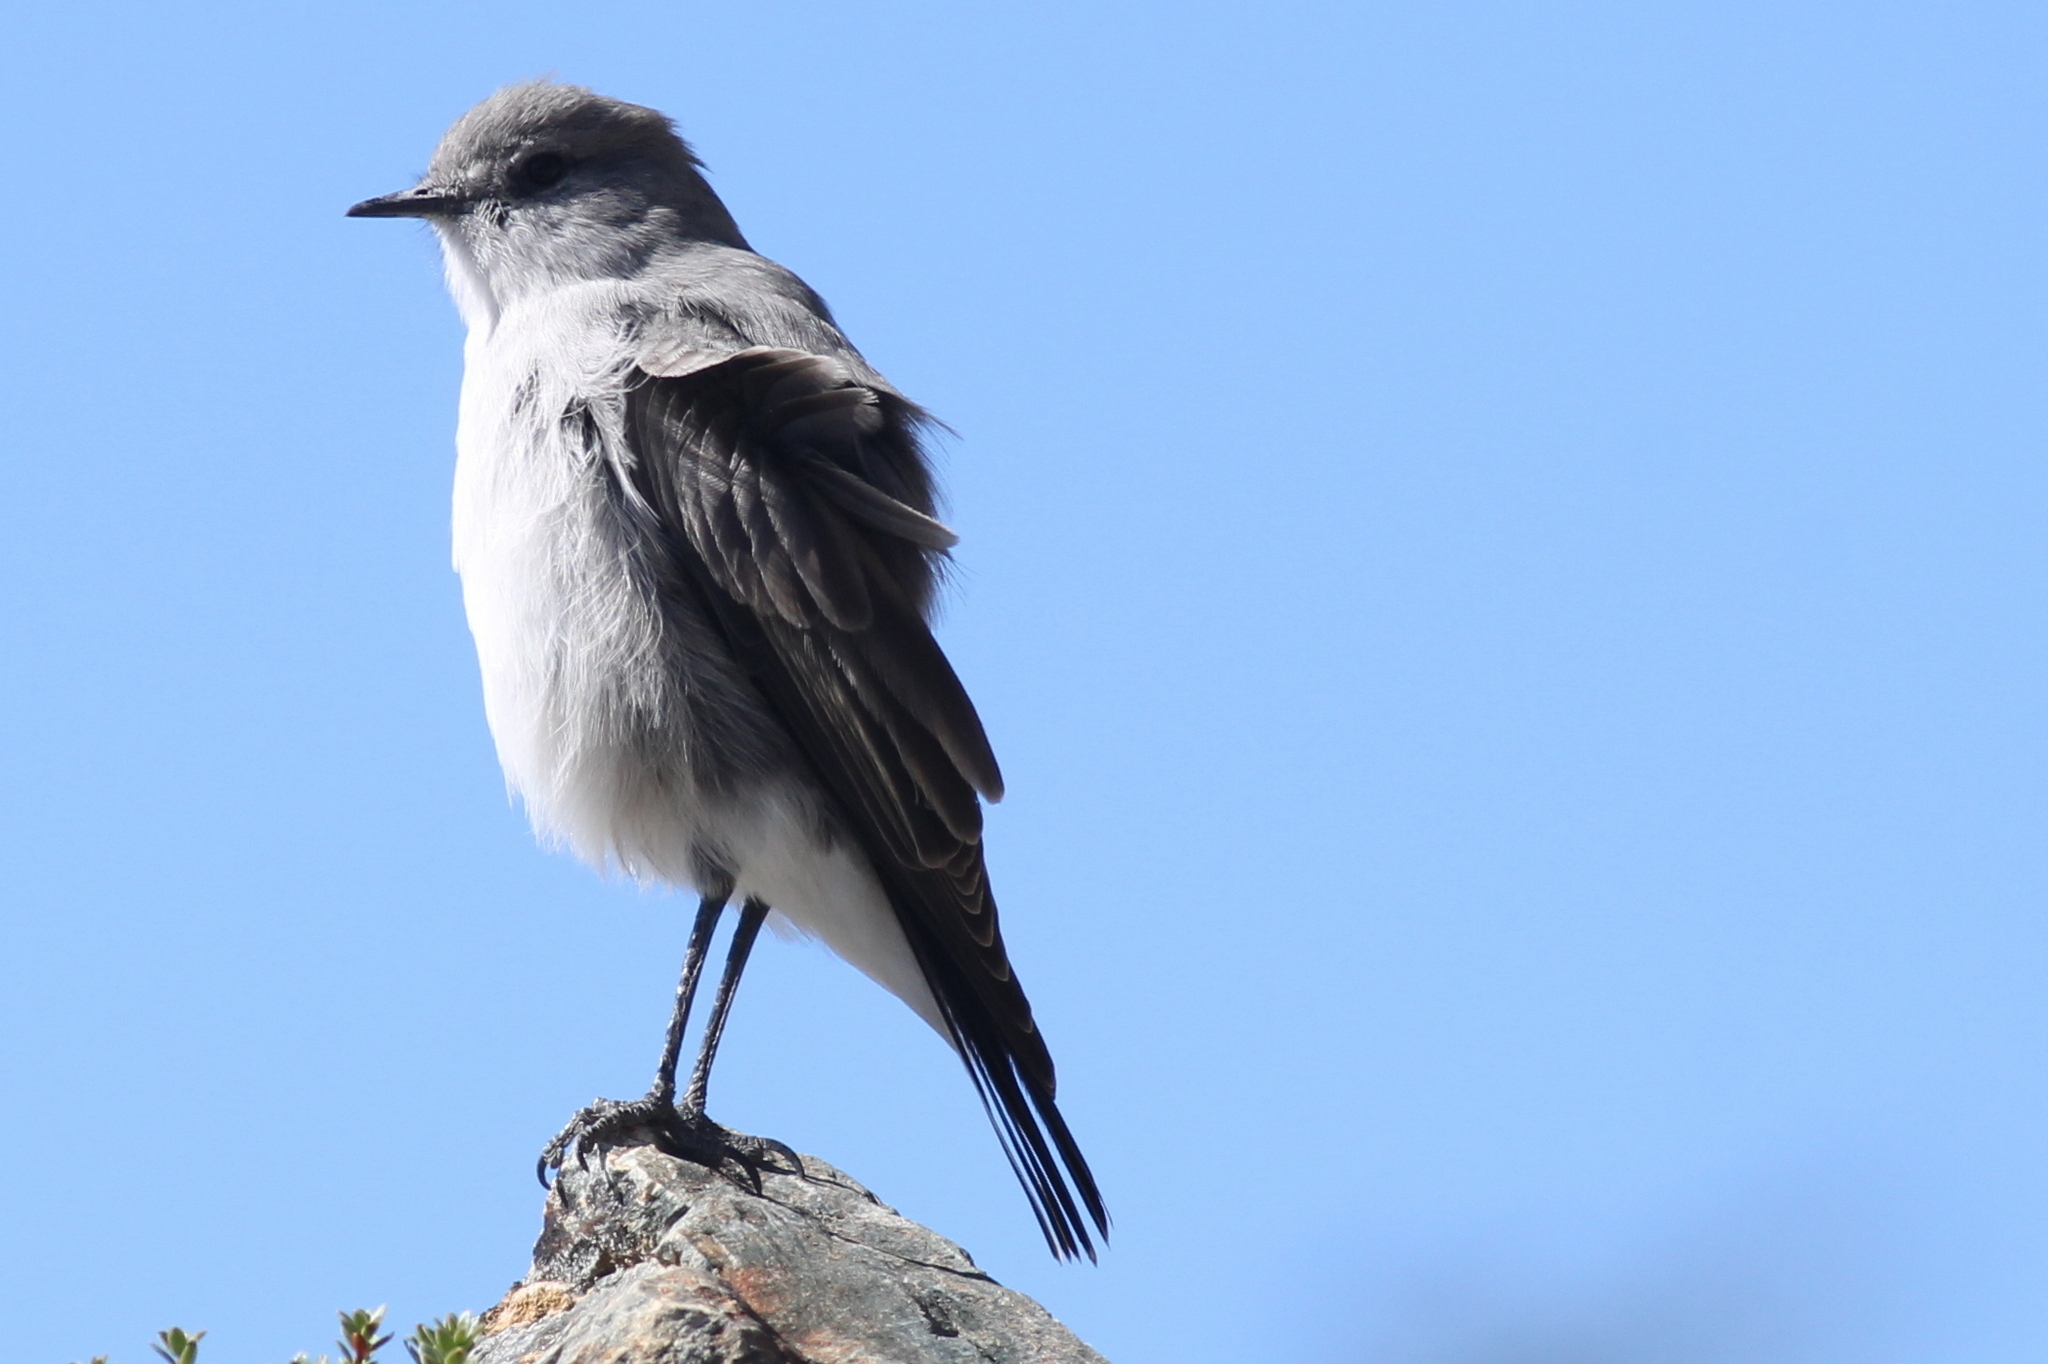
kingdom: Animalia
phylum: Chordata
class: Aves
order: Passeriformes
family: Tyrannidae
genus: Muscisaxicola
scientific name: Muscisaxicola cinereus
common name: Cinereous ground tyrant
